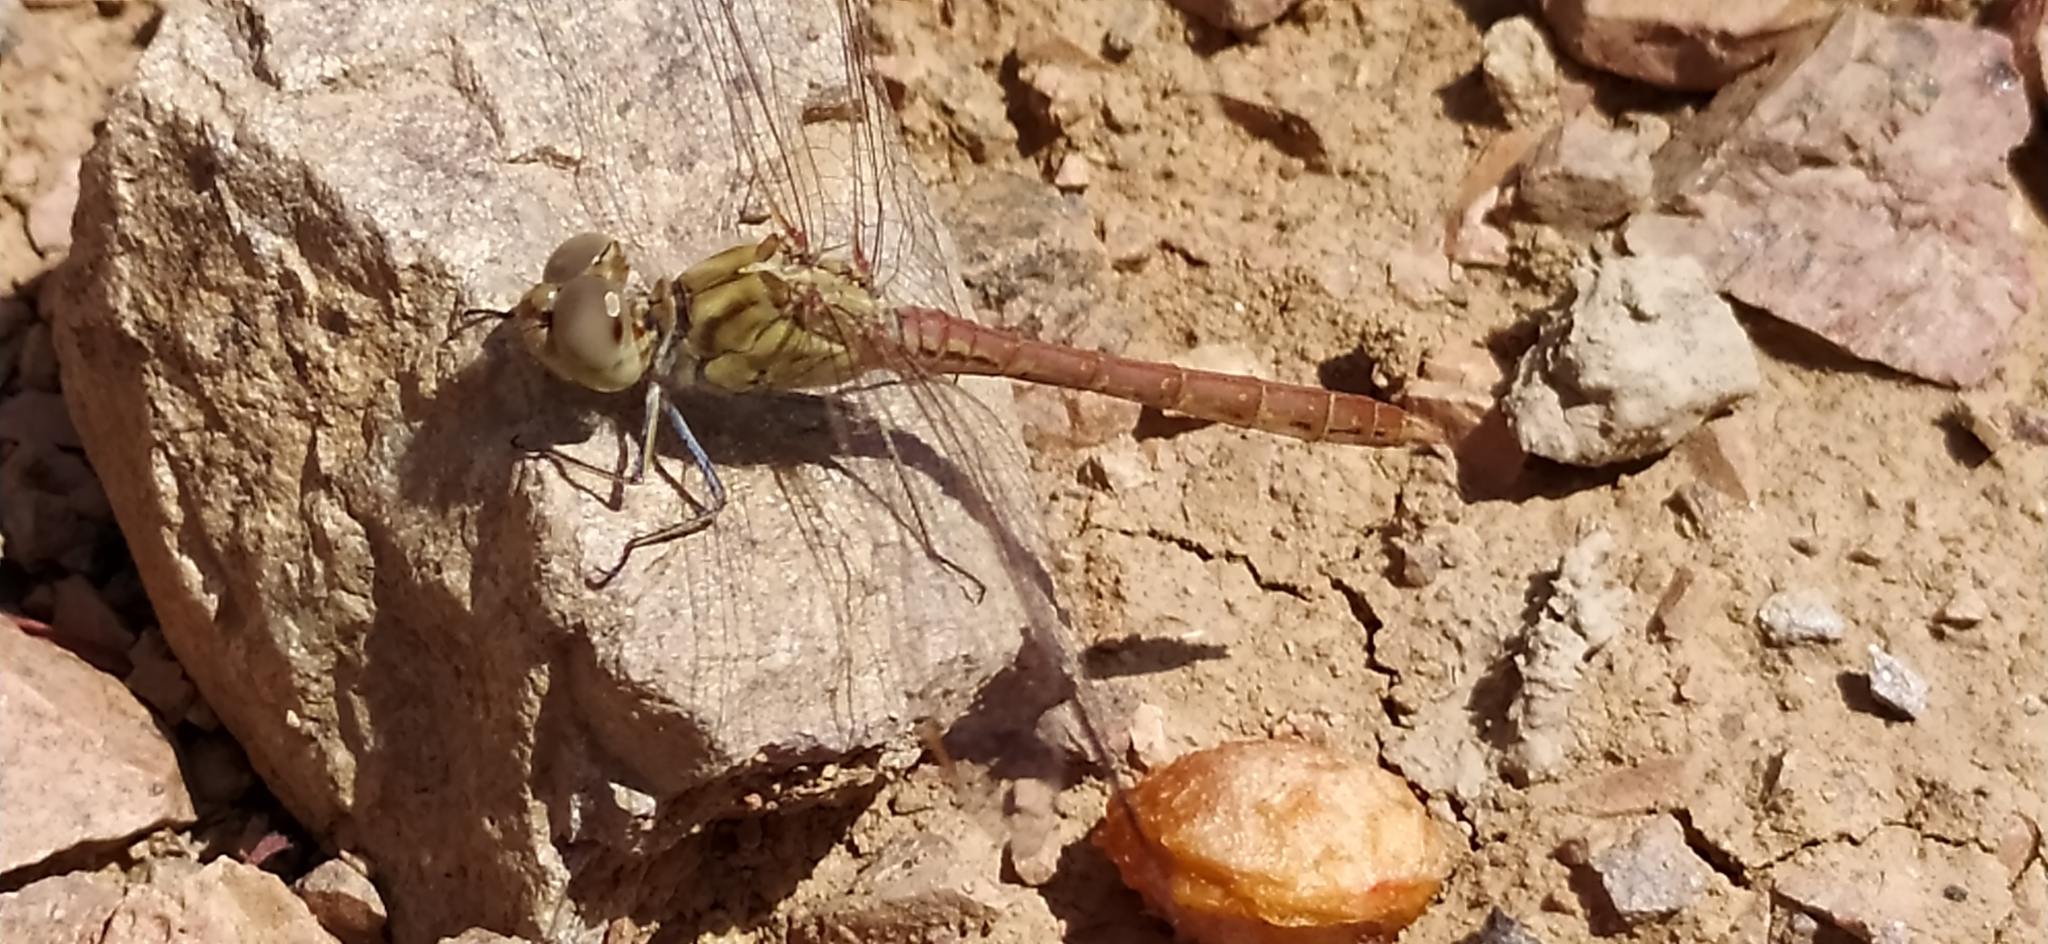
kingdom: Animalia
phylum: Arthropoda
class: Insecta
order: Odonata
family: Libellulidae
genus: Sympetrum
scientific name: Sympetrum striolatum
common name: Common darter
